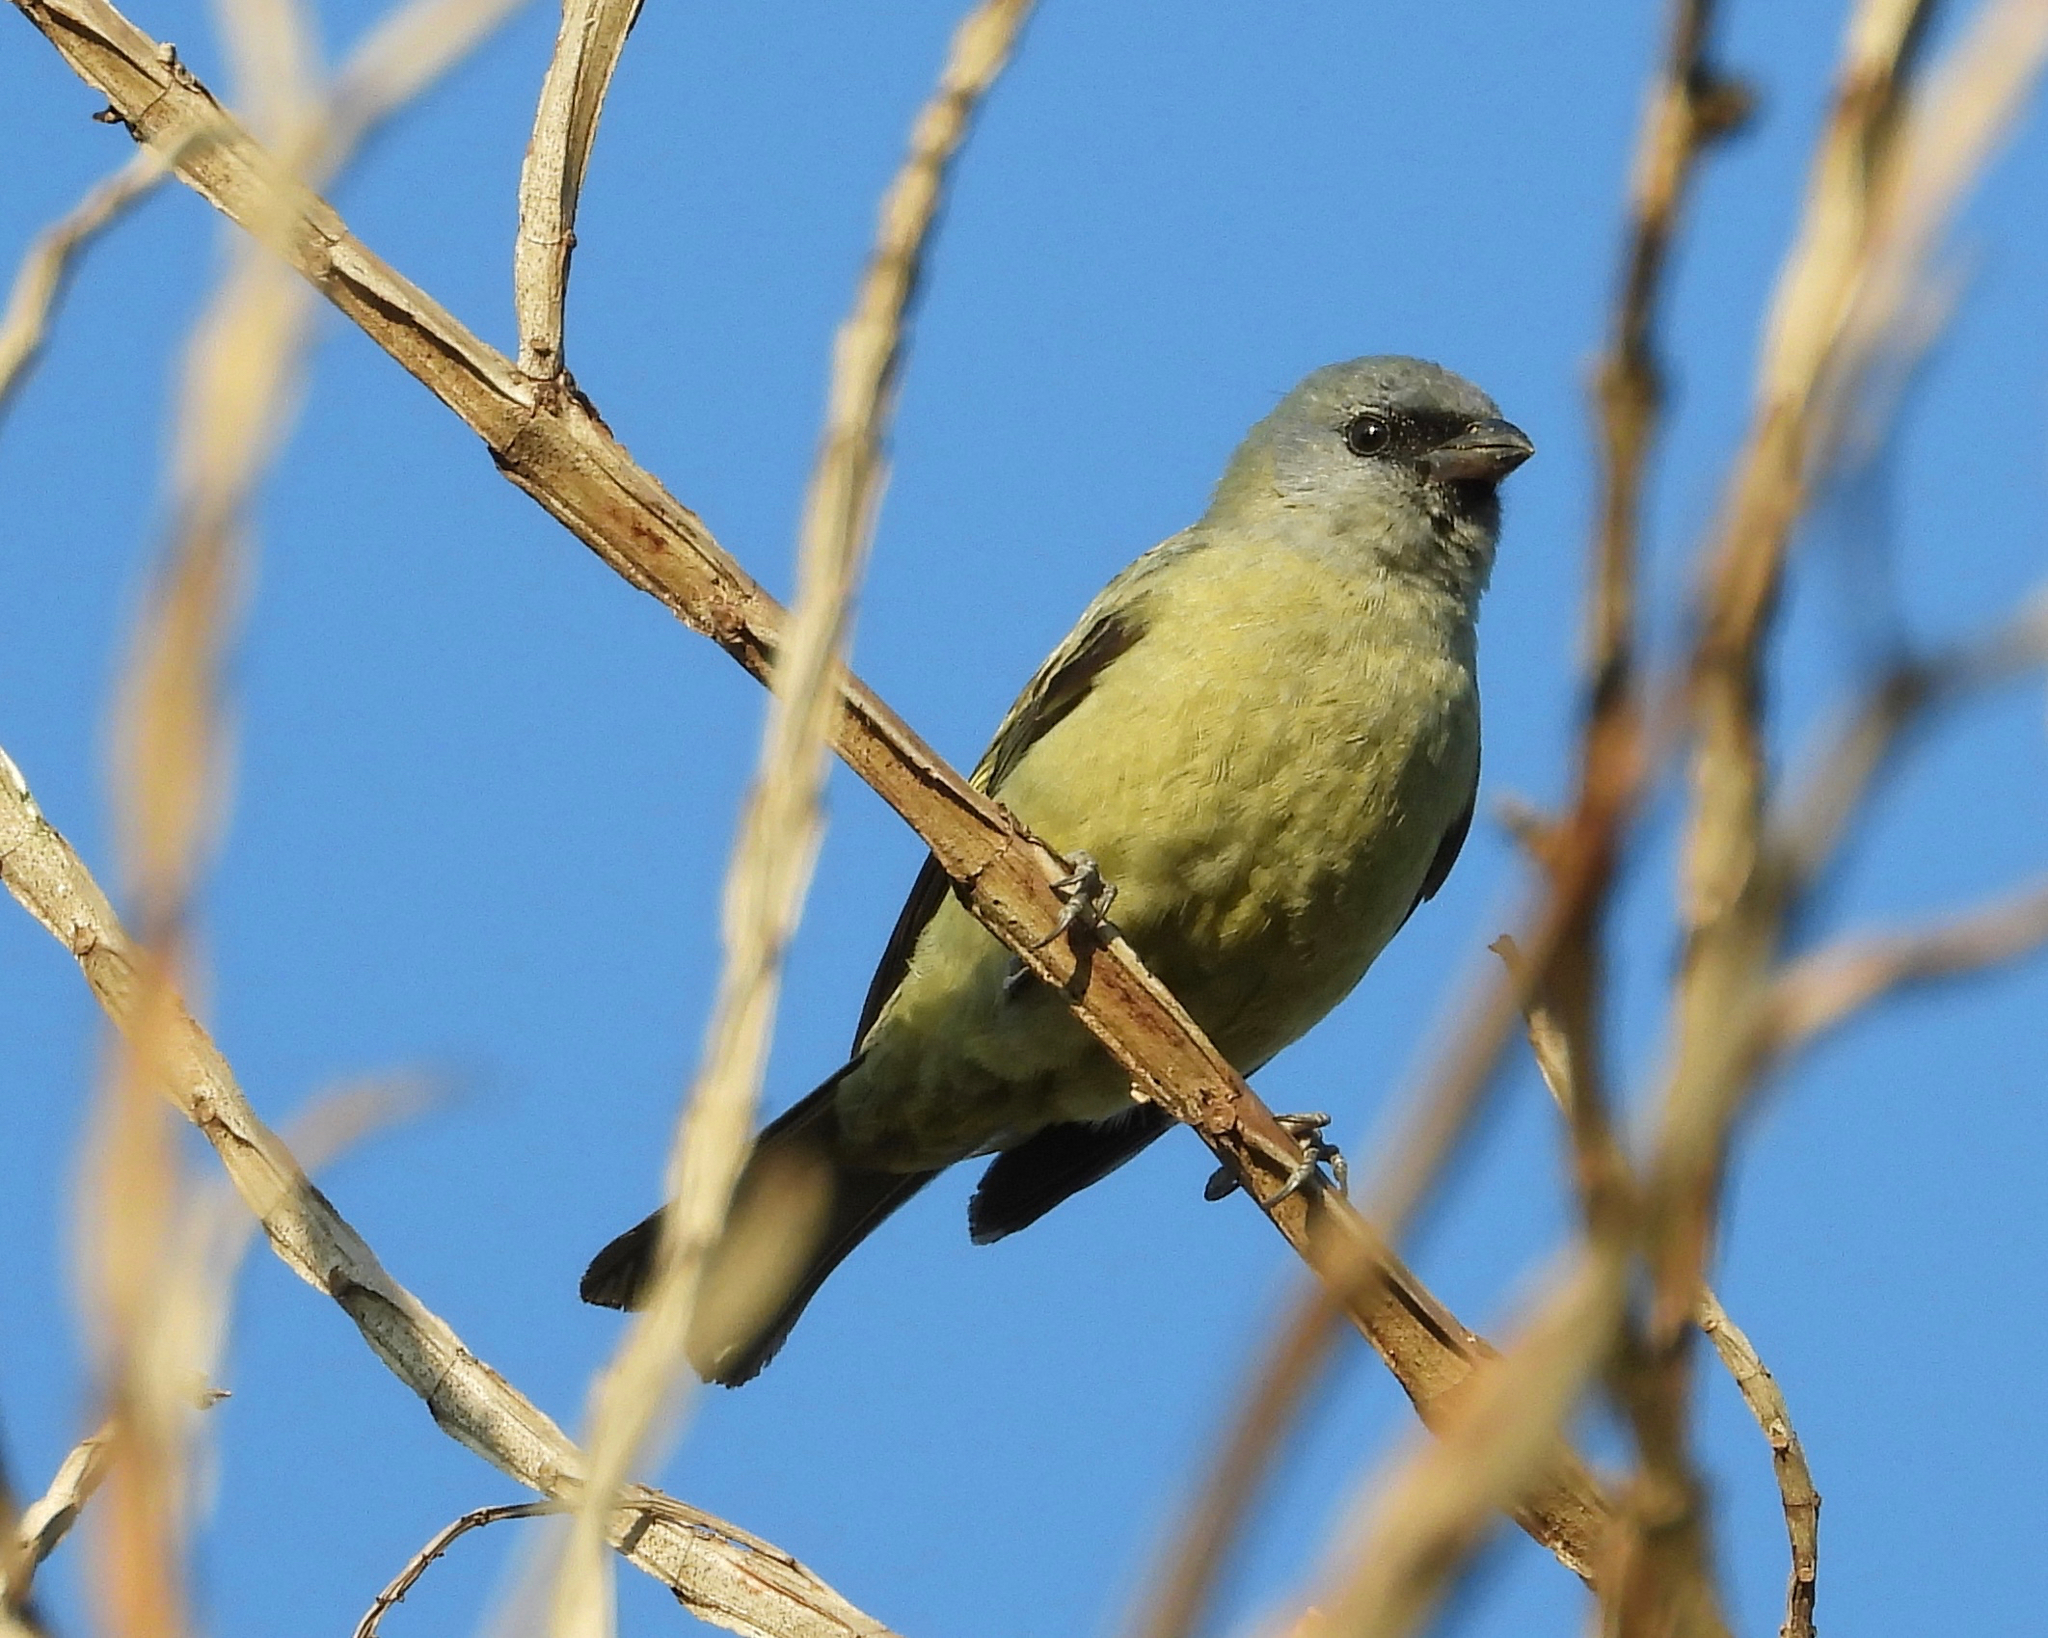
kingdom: Animalia
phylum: Chordata
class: Aves
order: Passeriformes
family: Thraupidae
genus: Thraupis
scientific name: Thraupis abbas
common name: Yellow-winged tanager
